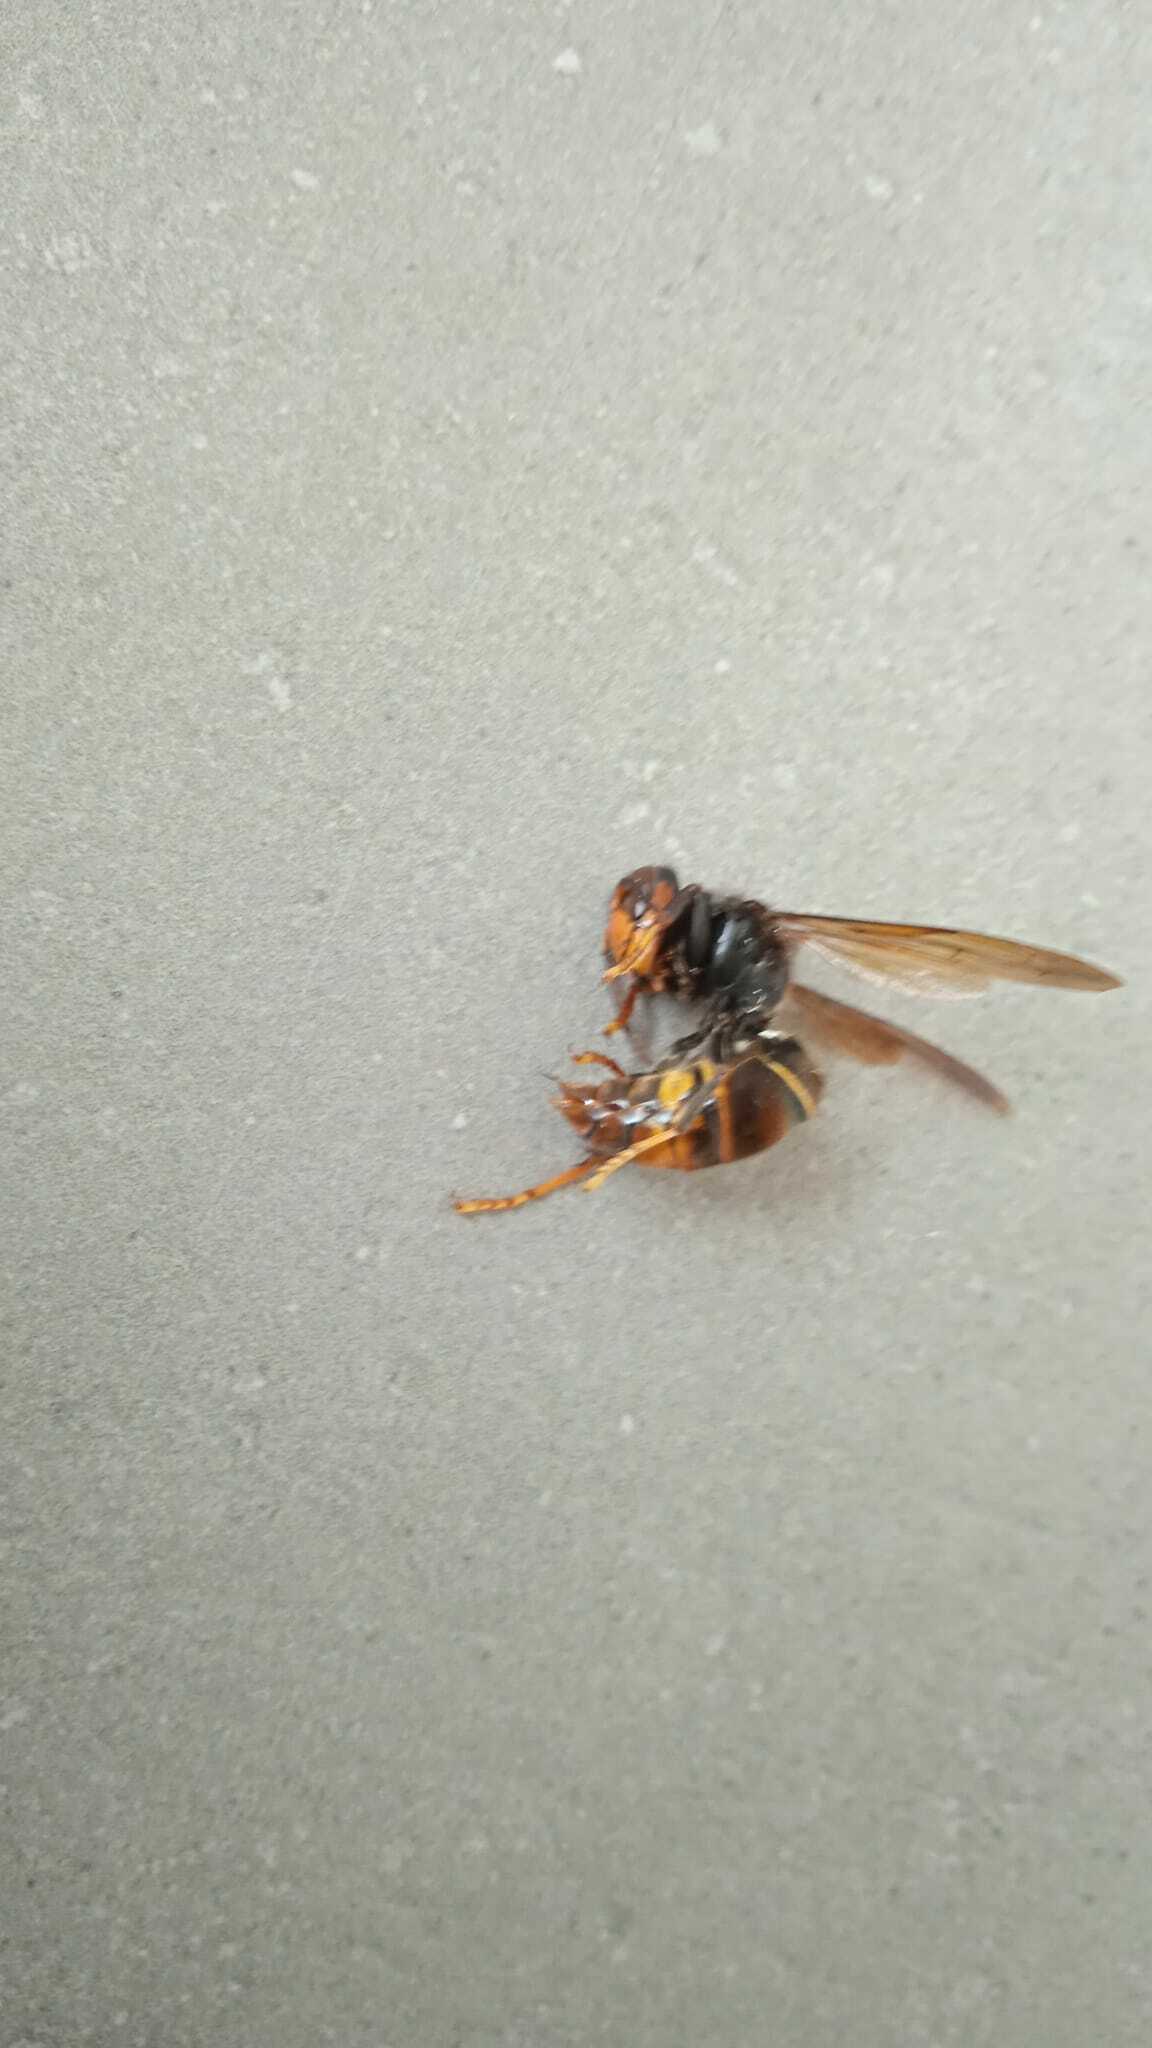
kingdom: Animalia
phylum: Arthropoda
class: Insecta
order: Hymenoptera
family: Vespidae
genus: Vespa
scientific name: Vespa velutina
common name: Asian hornet
